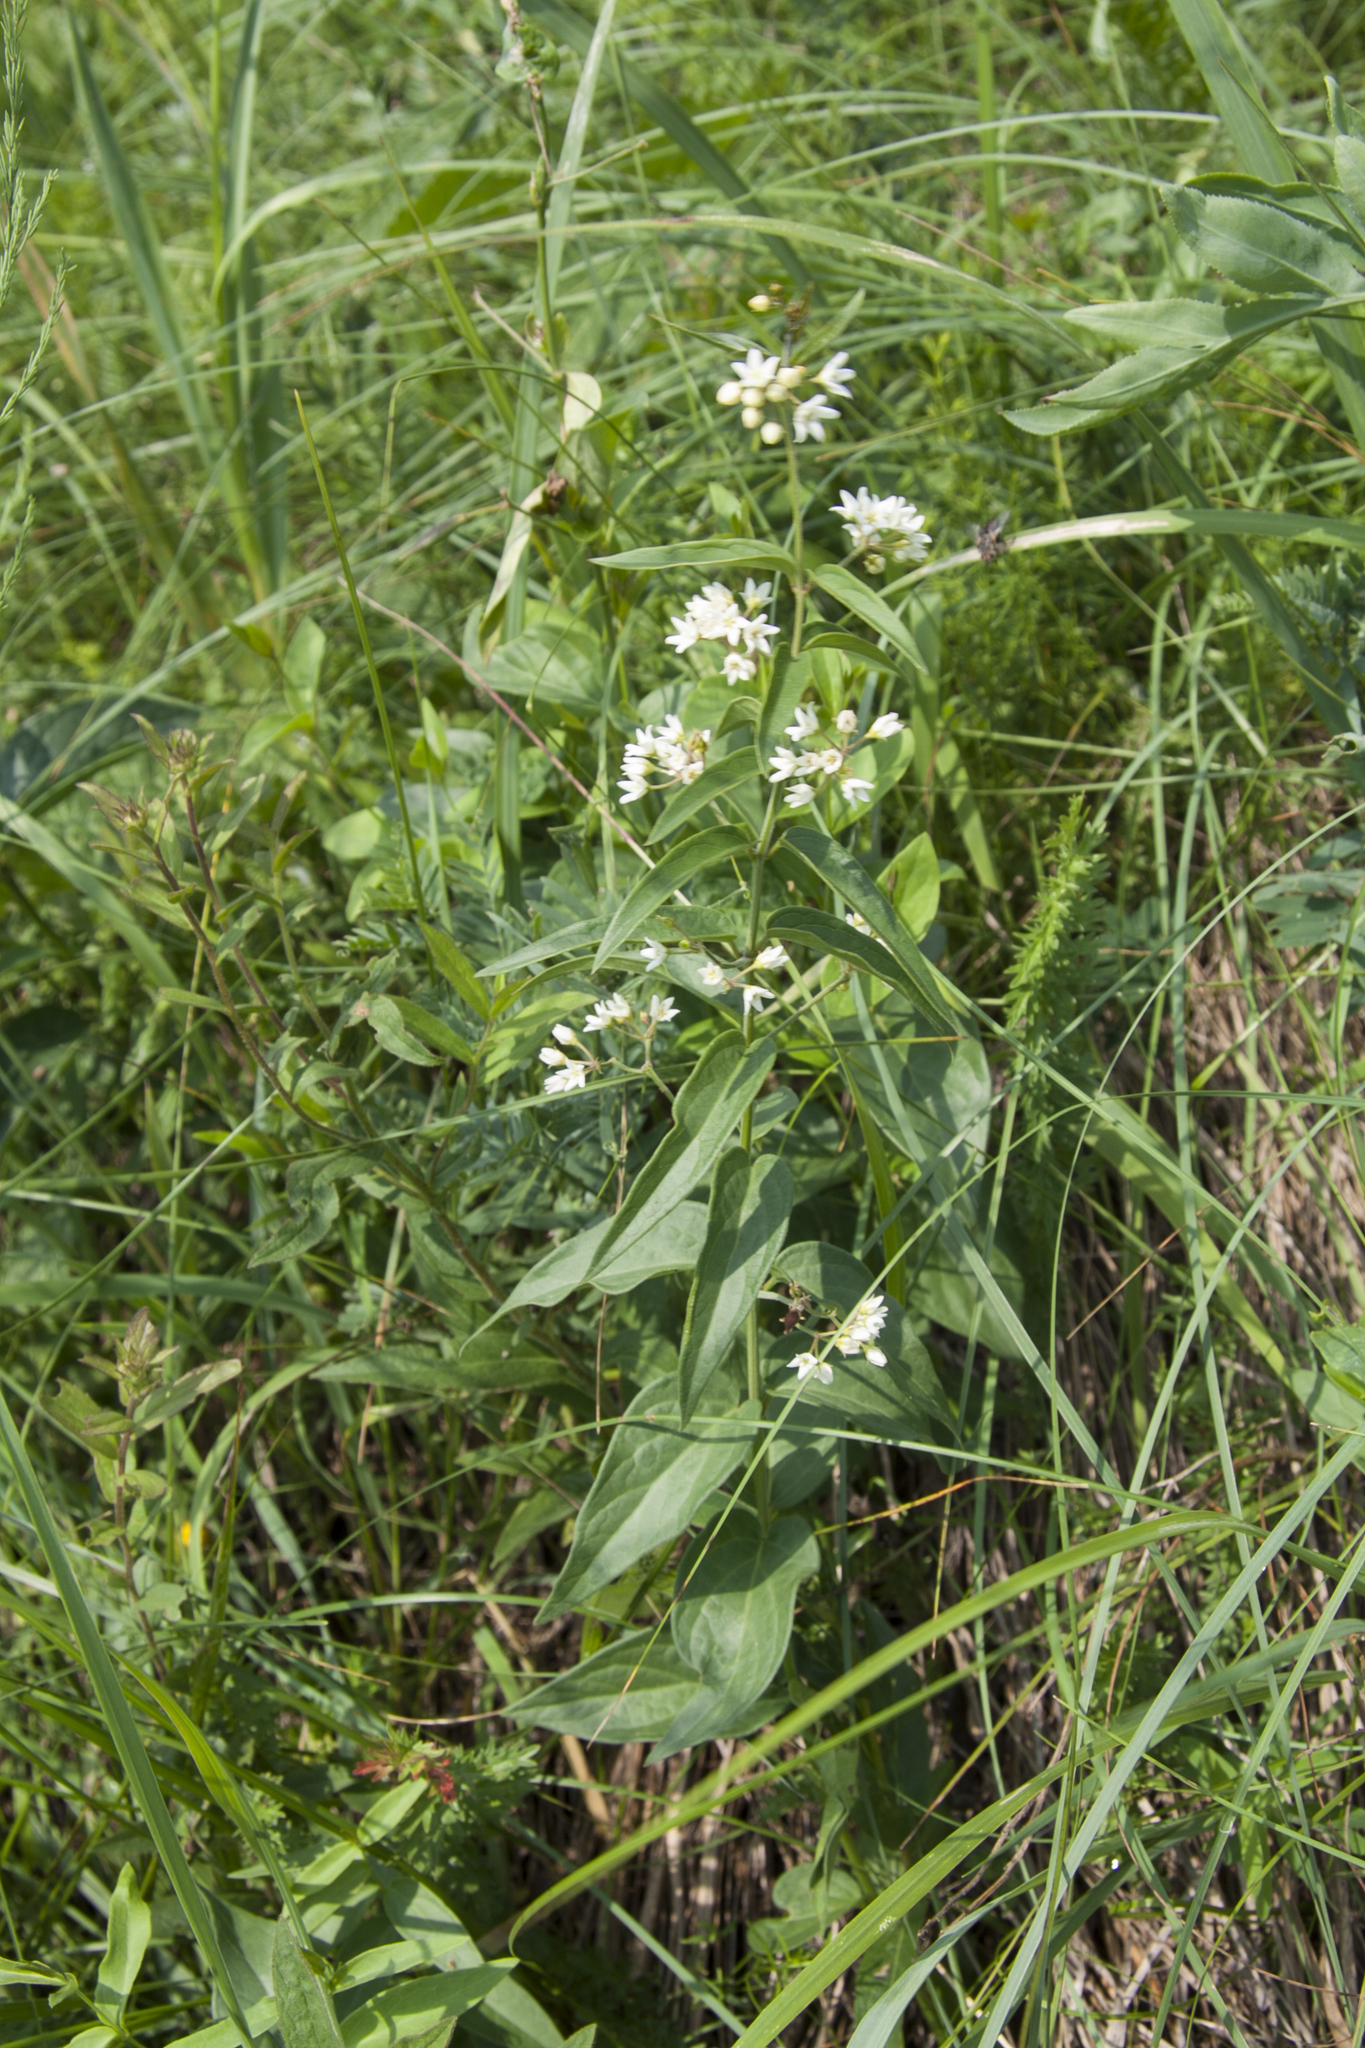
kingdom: Plantae
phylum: Tracheophyta
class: Magnoliopsida
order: Gentianales
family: Apocynaceae
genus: Vincetoxicum
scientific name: Vincetoxicum hirundinaria
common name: White swallowwort
